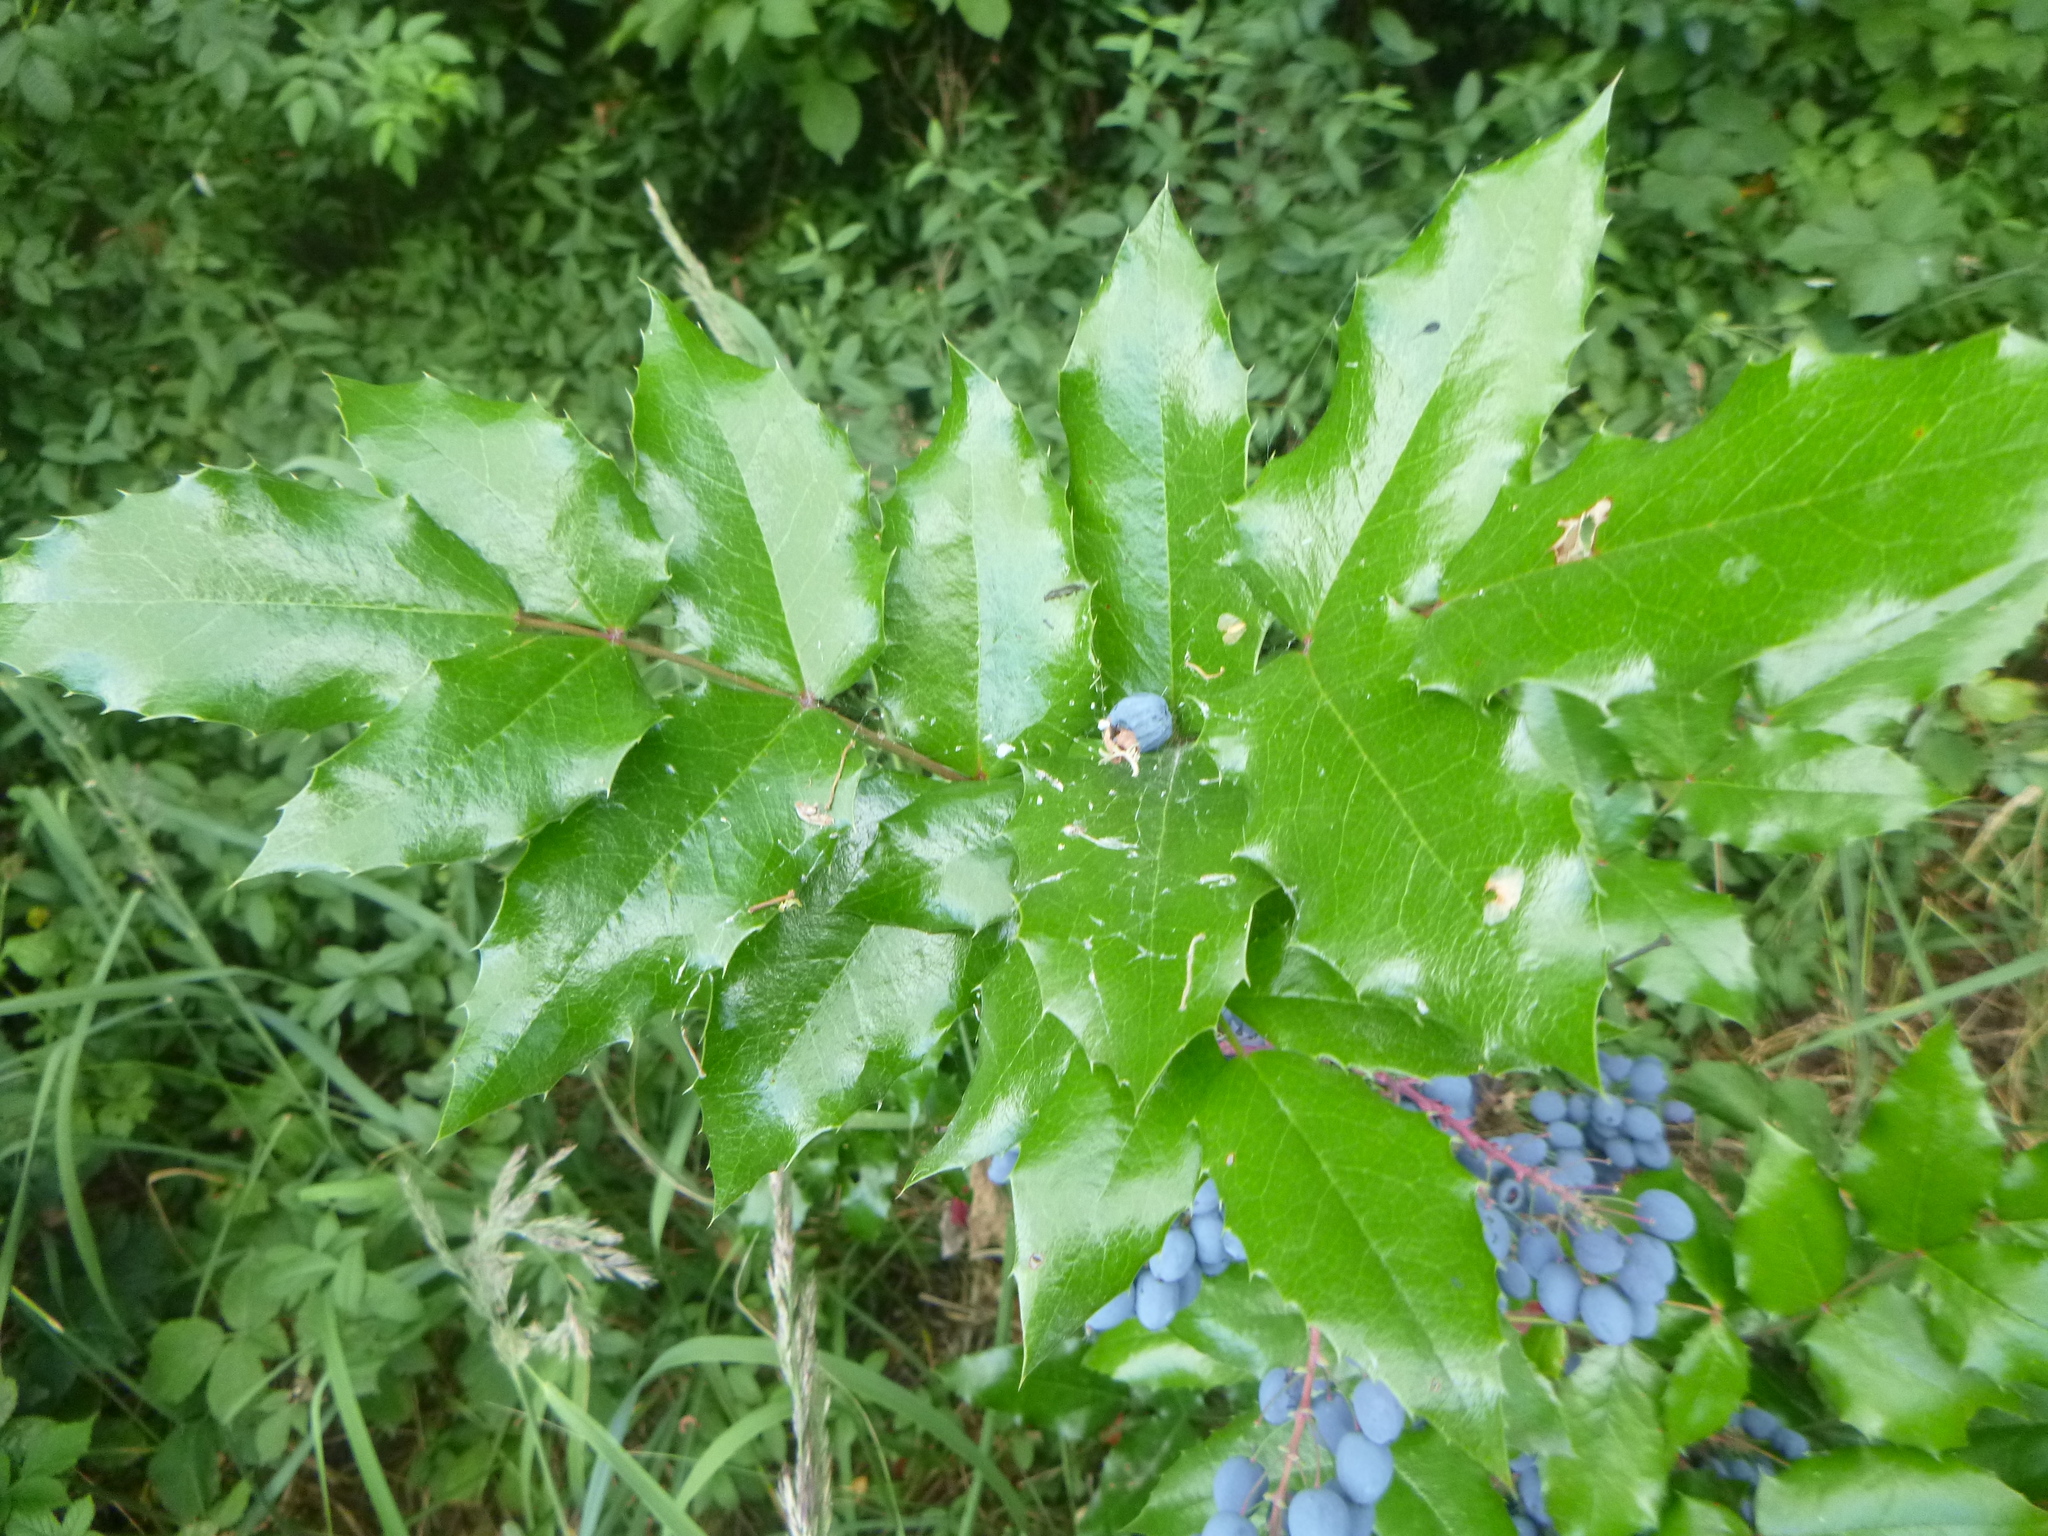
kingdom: Plantae
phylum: Tracheophyta
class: Magnoliopsida
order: Ranunculales
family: Berberidaceae
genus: Mahonia
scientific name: Mahonia aquifolium
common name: Oregon-grape
